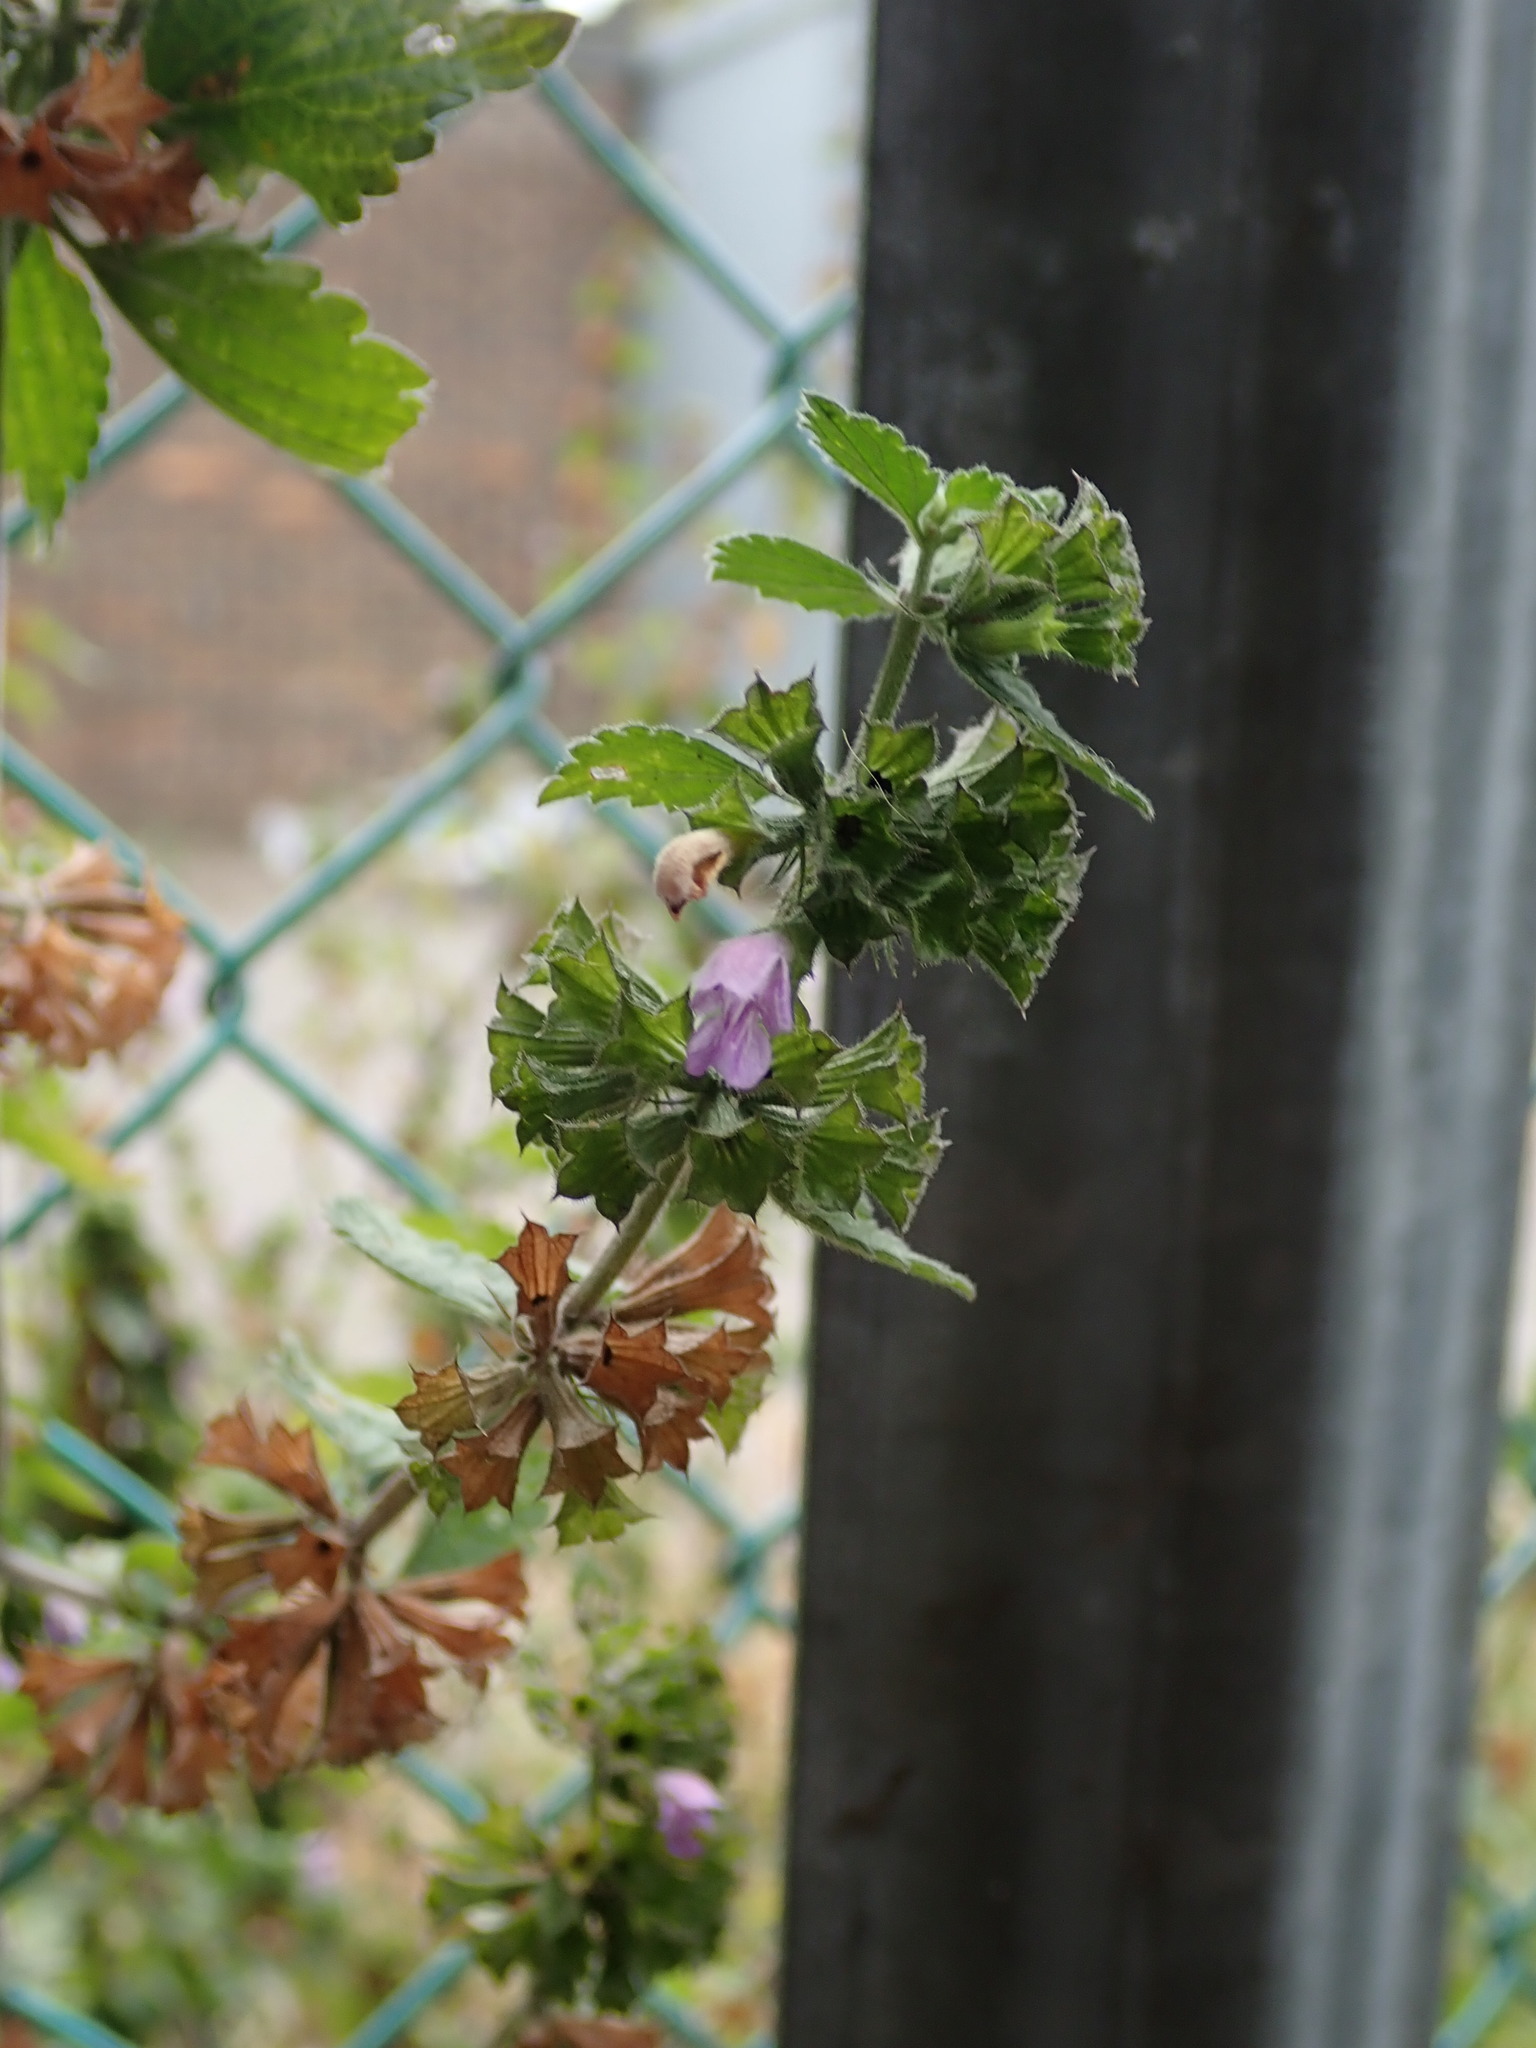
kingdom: Plantae
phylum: Tracheophyta
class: Magnoliopsida
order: Lamiales
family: Lamiaceae
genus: Ballota
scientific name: Ballota nigra
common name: Black horehound
